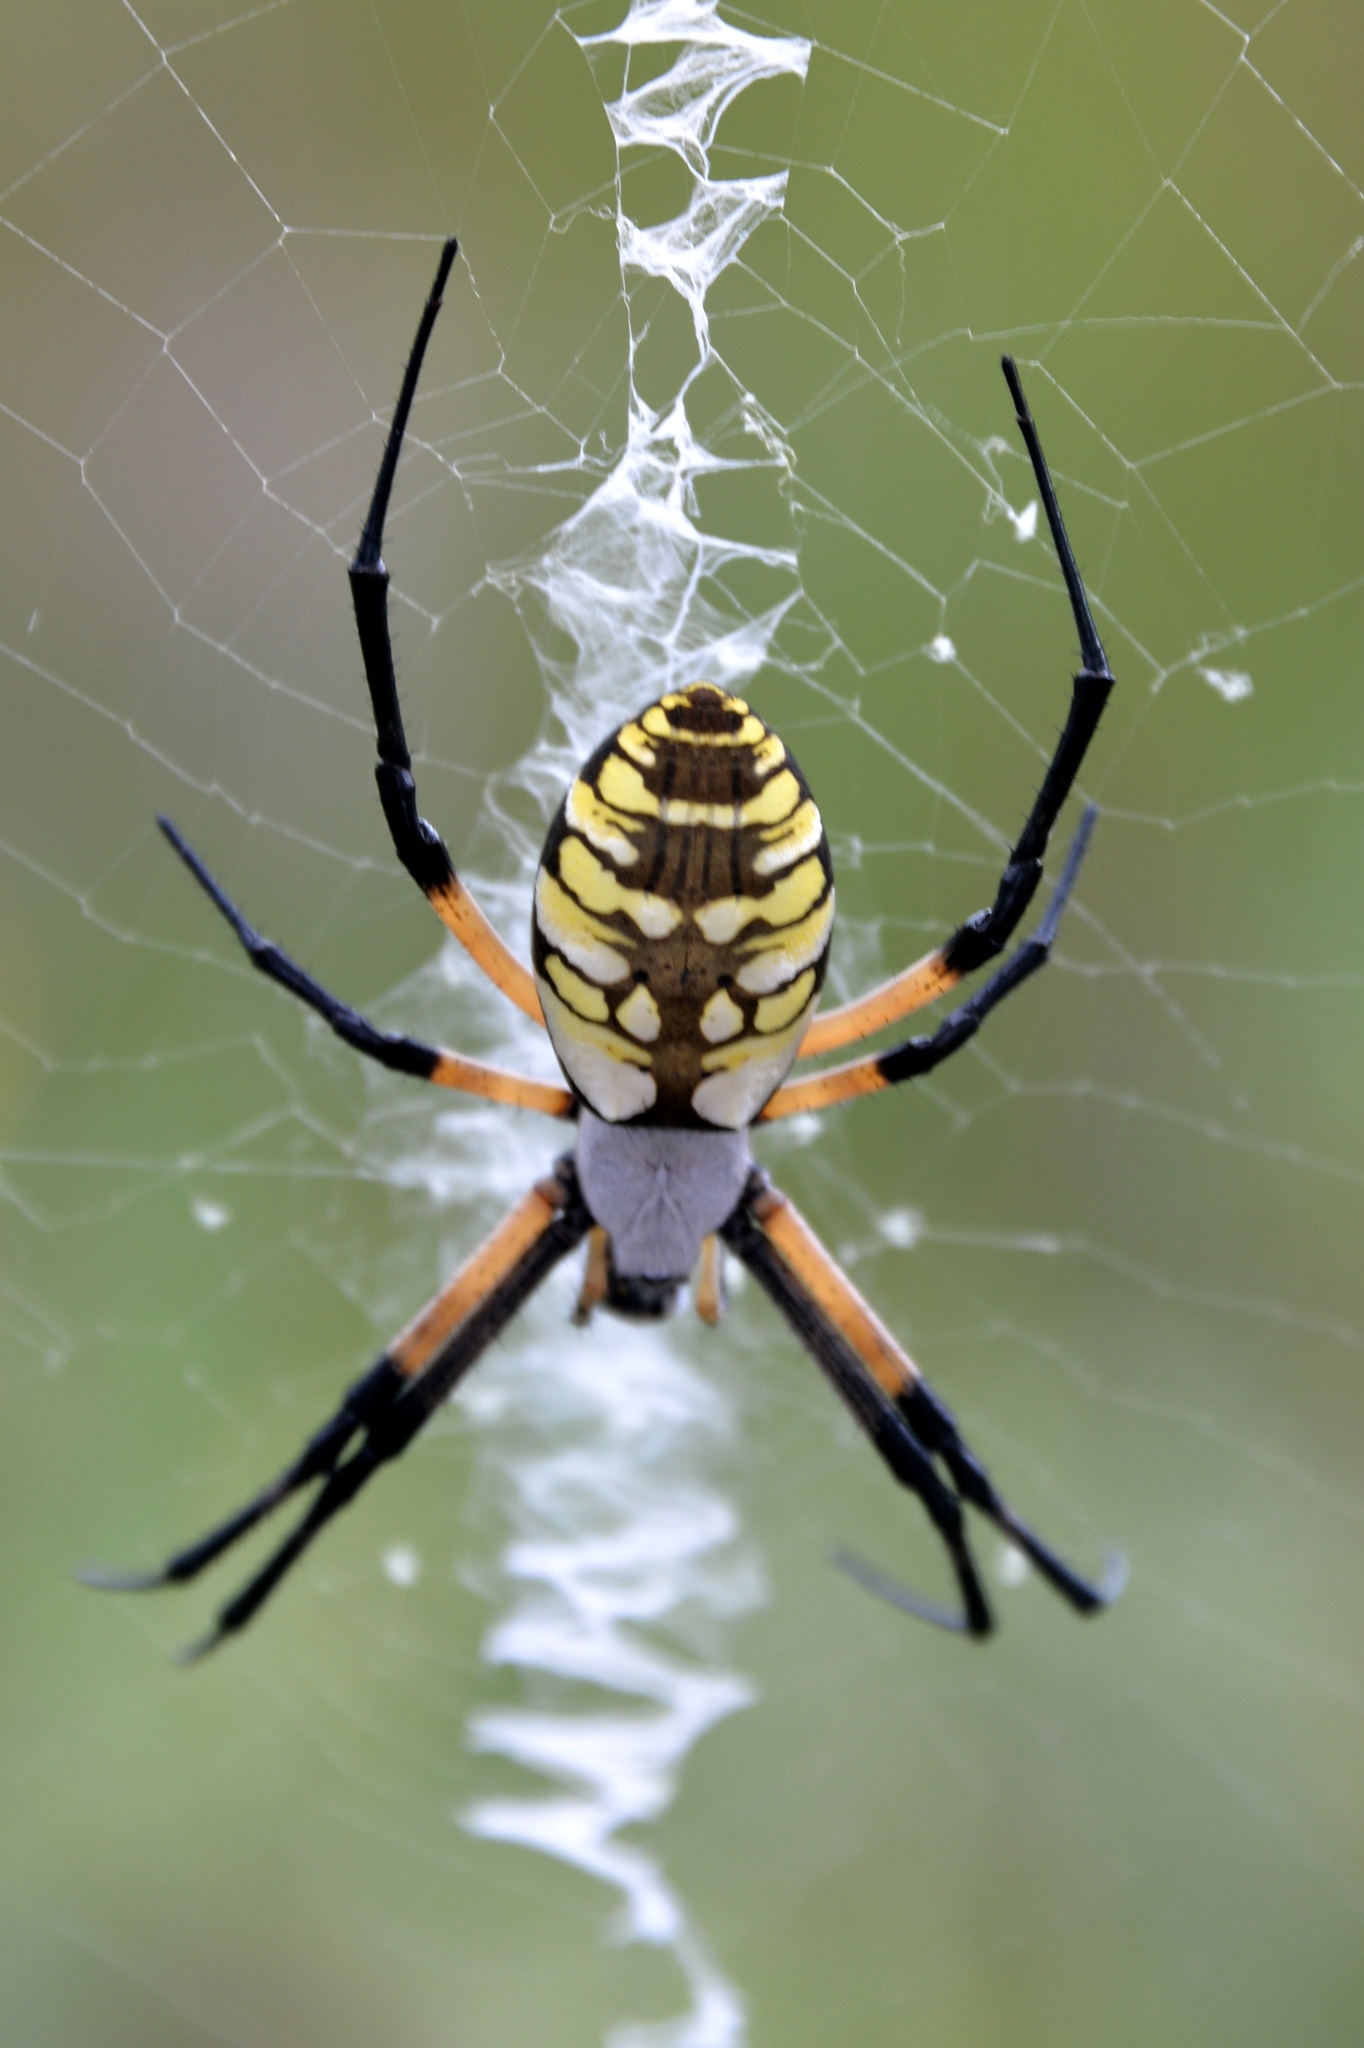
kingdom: Animalia
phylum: Arthropoda
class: Arachnida
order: Araneae
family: Araneidae
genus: Argiope
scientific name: Argiope aurantia
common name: Orb weavers
